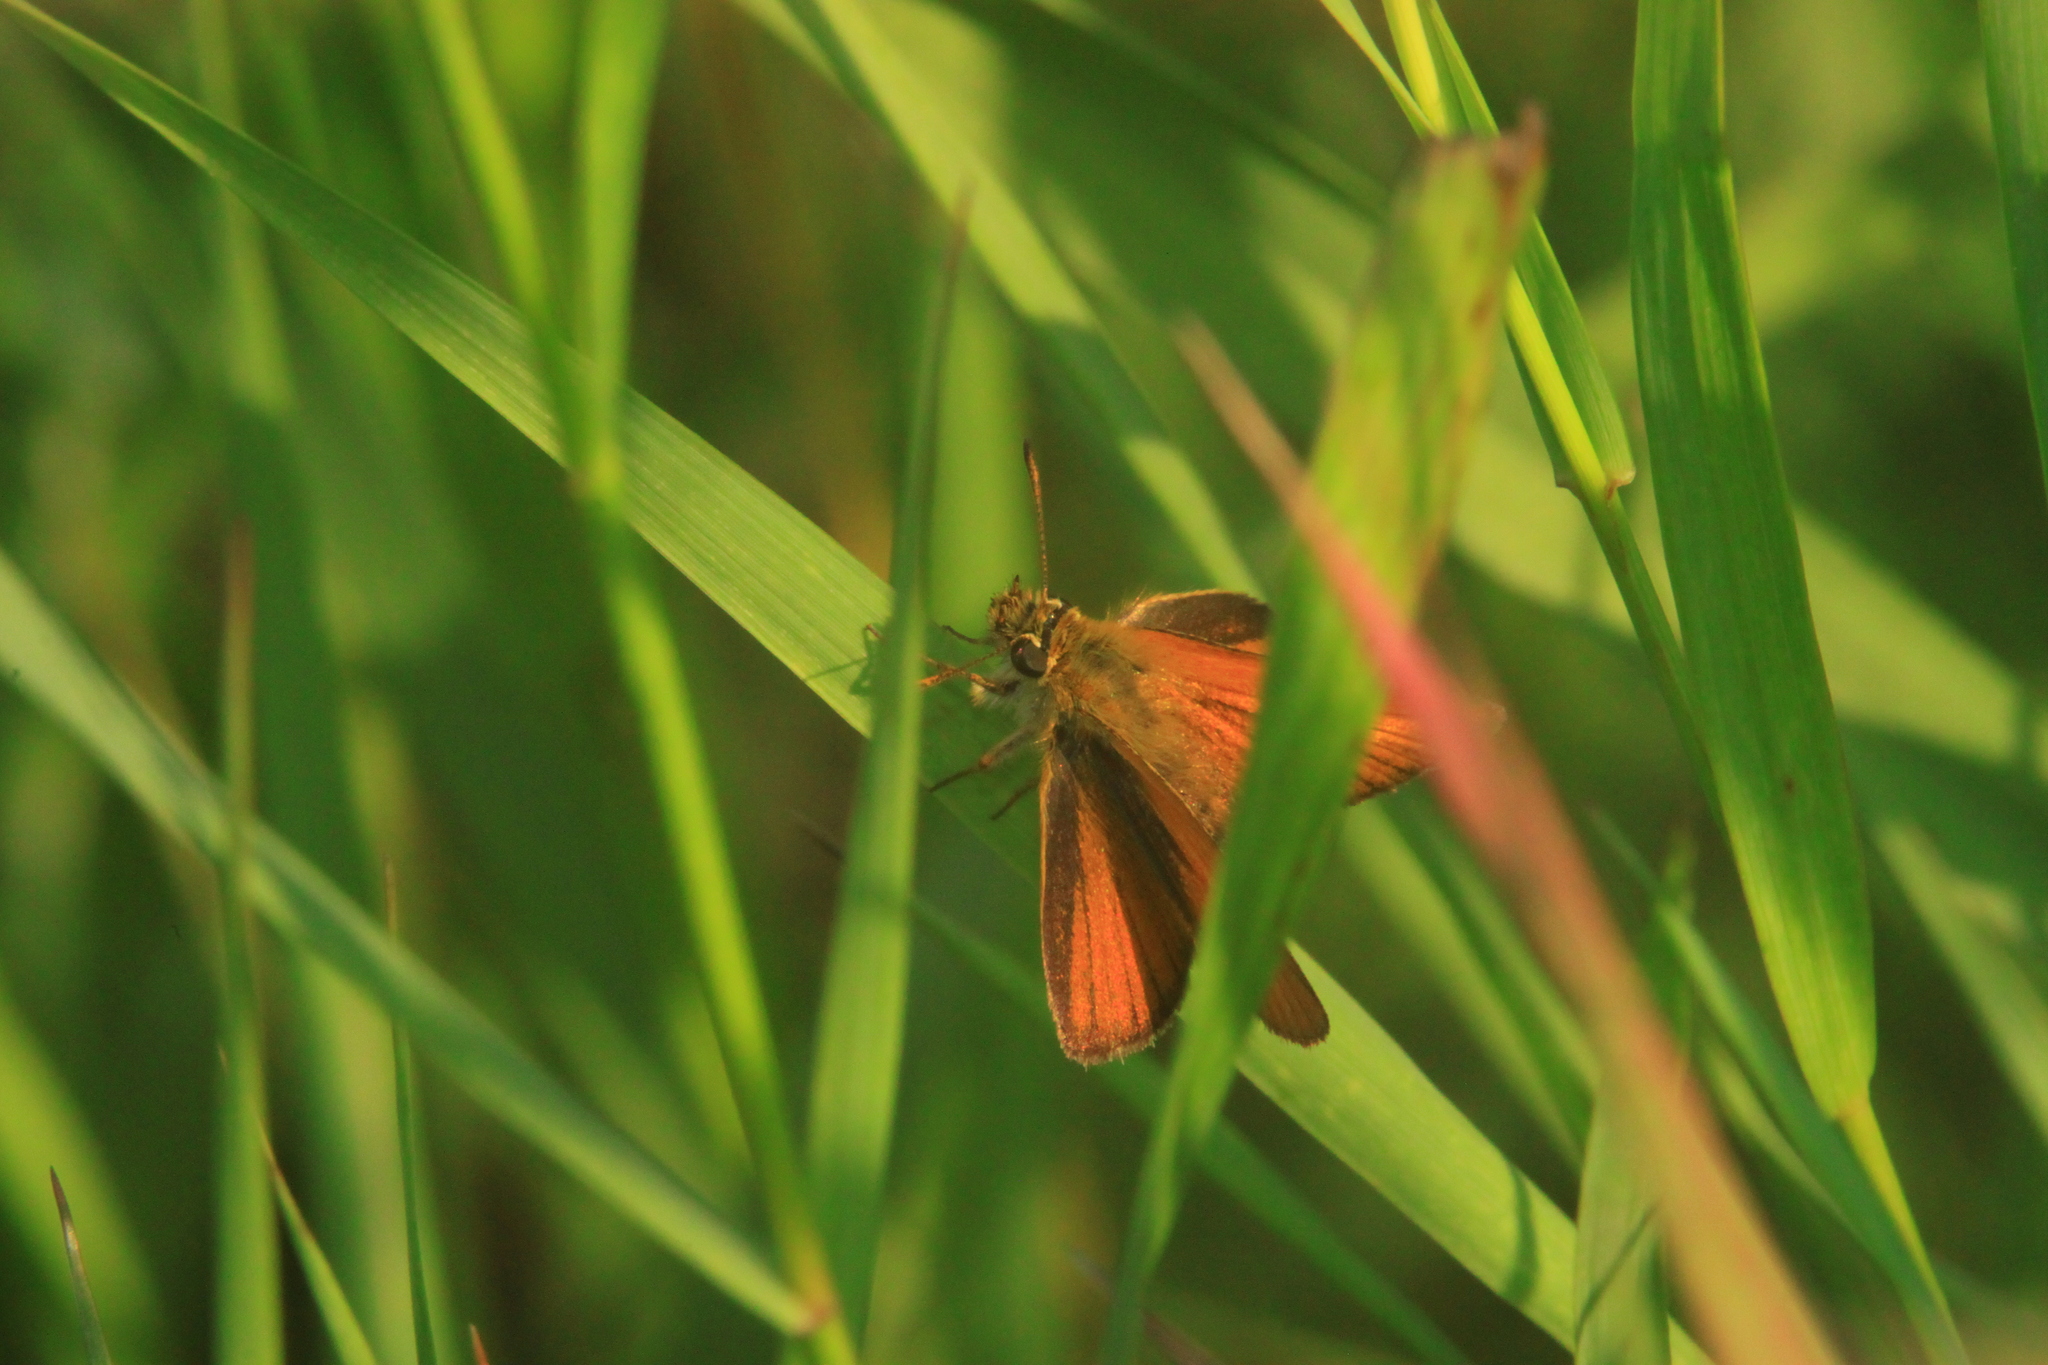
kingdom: Animalia
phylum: Arthropoda
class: Insecta
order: Lepidoptera
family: Hesperiidae
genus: Thymelicus
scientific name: Thymelicus lineola
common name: Essex skipper
